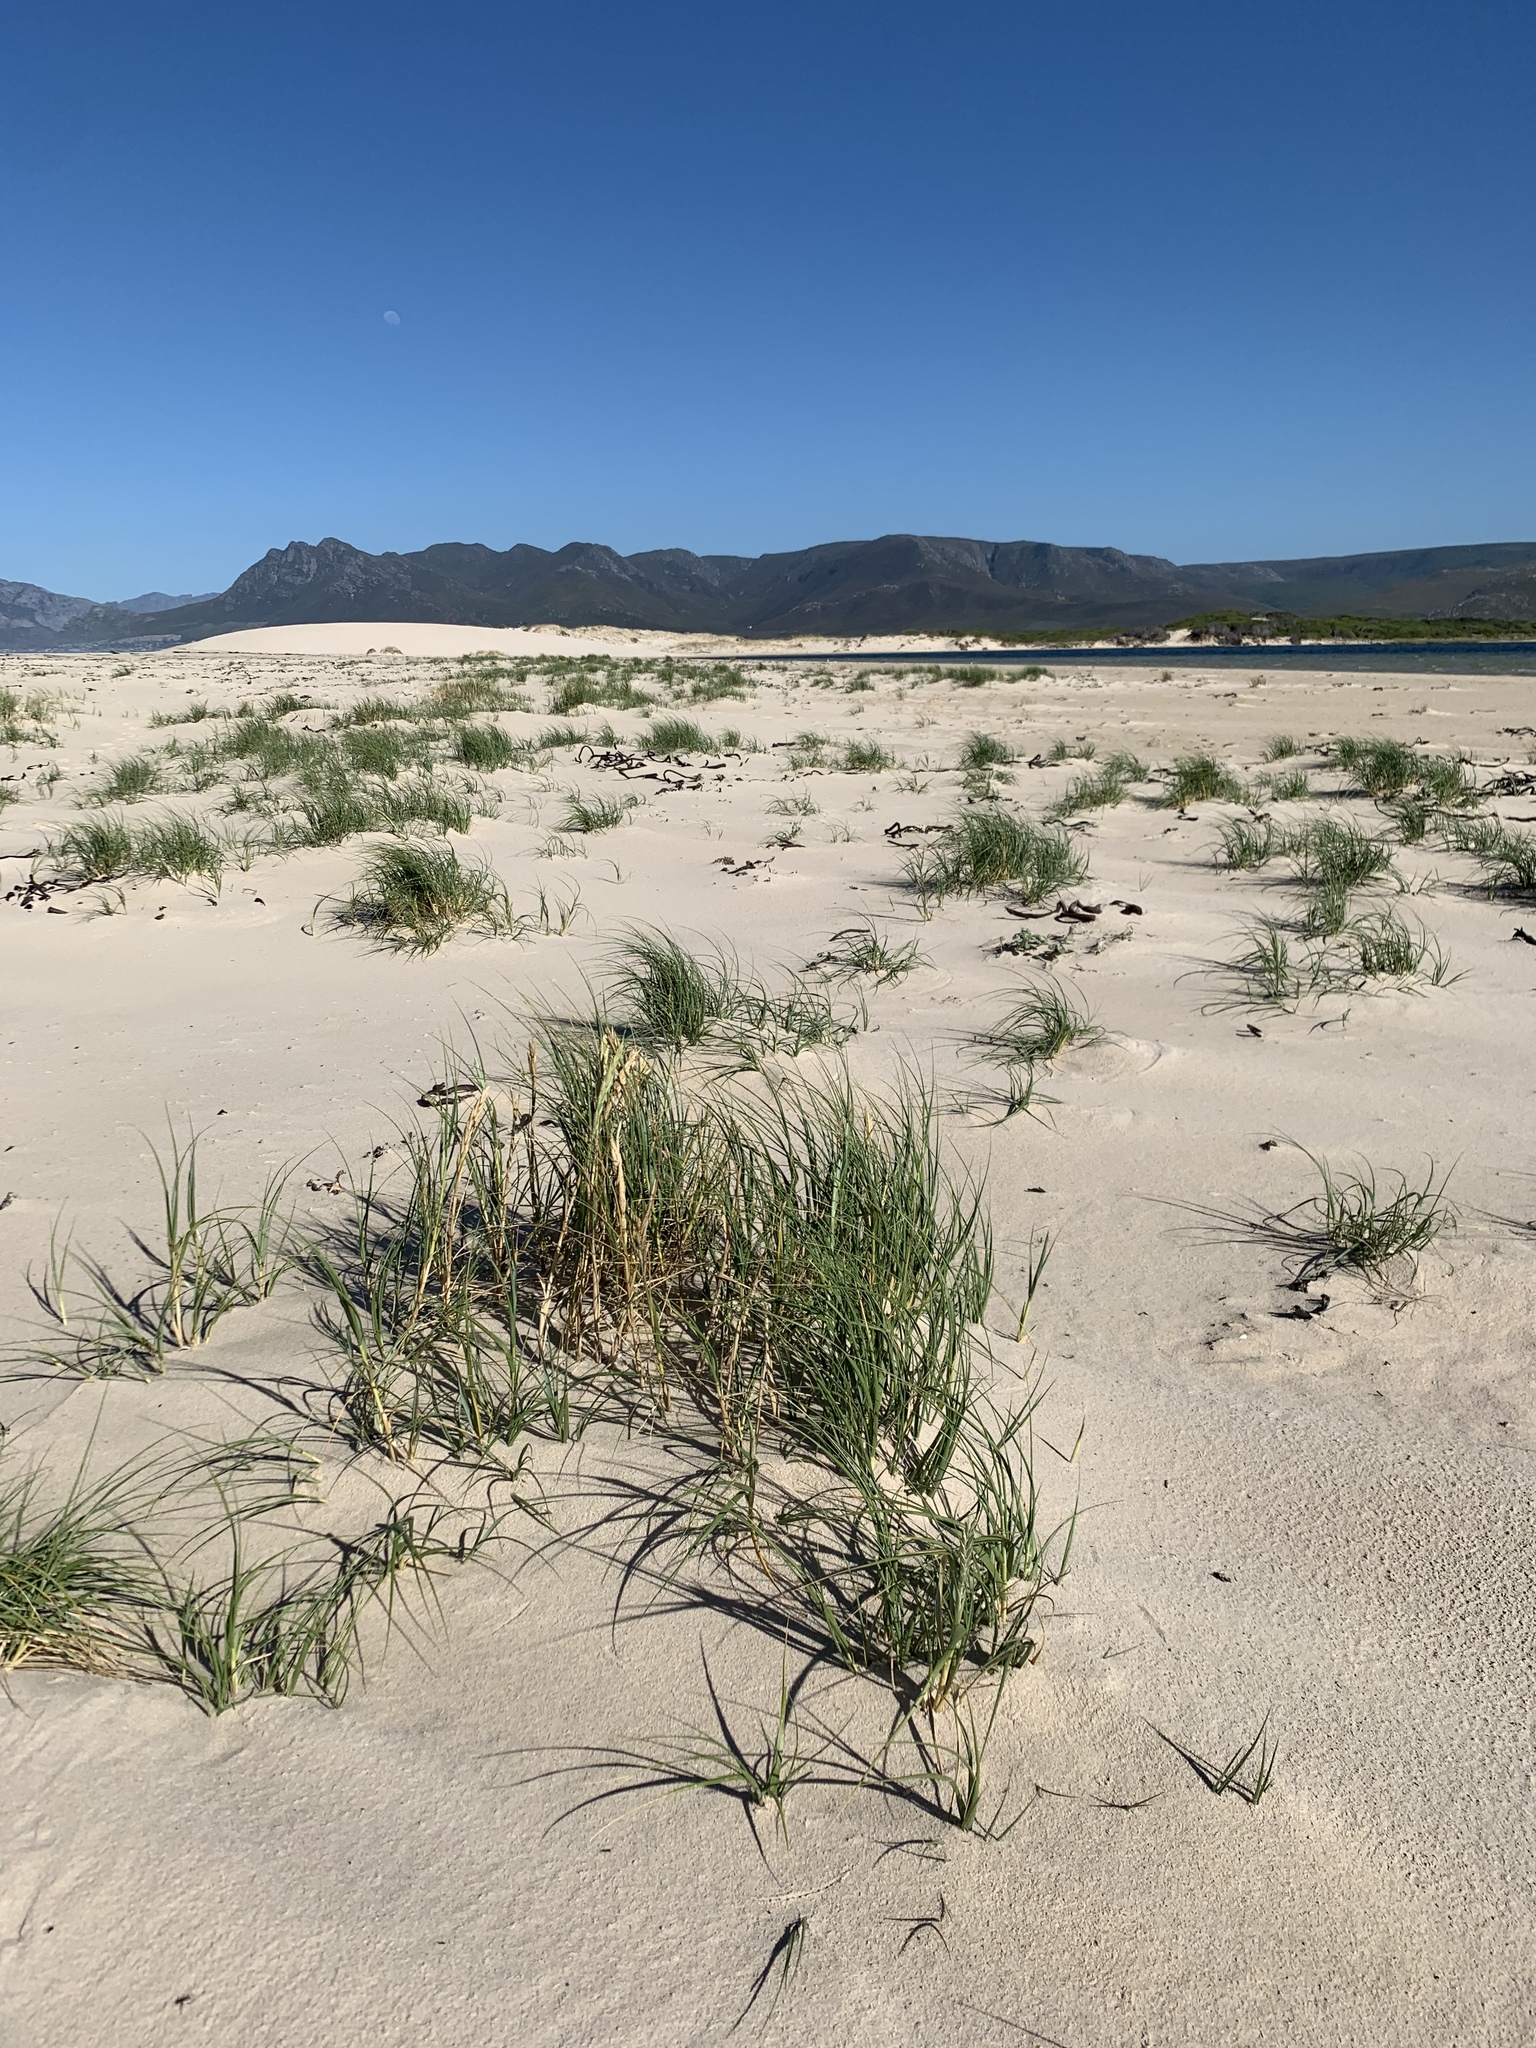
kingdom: Plantae
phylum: Tracheophyta
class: Liliopsida
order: Poales
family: Poaceae
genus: Thinopyrum
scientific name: Thinopyrum distichum
